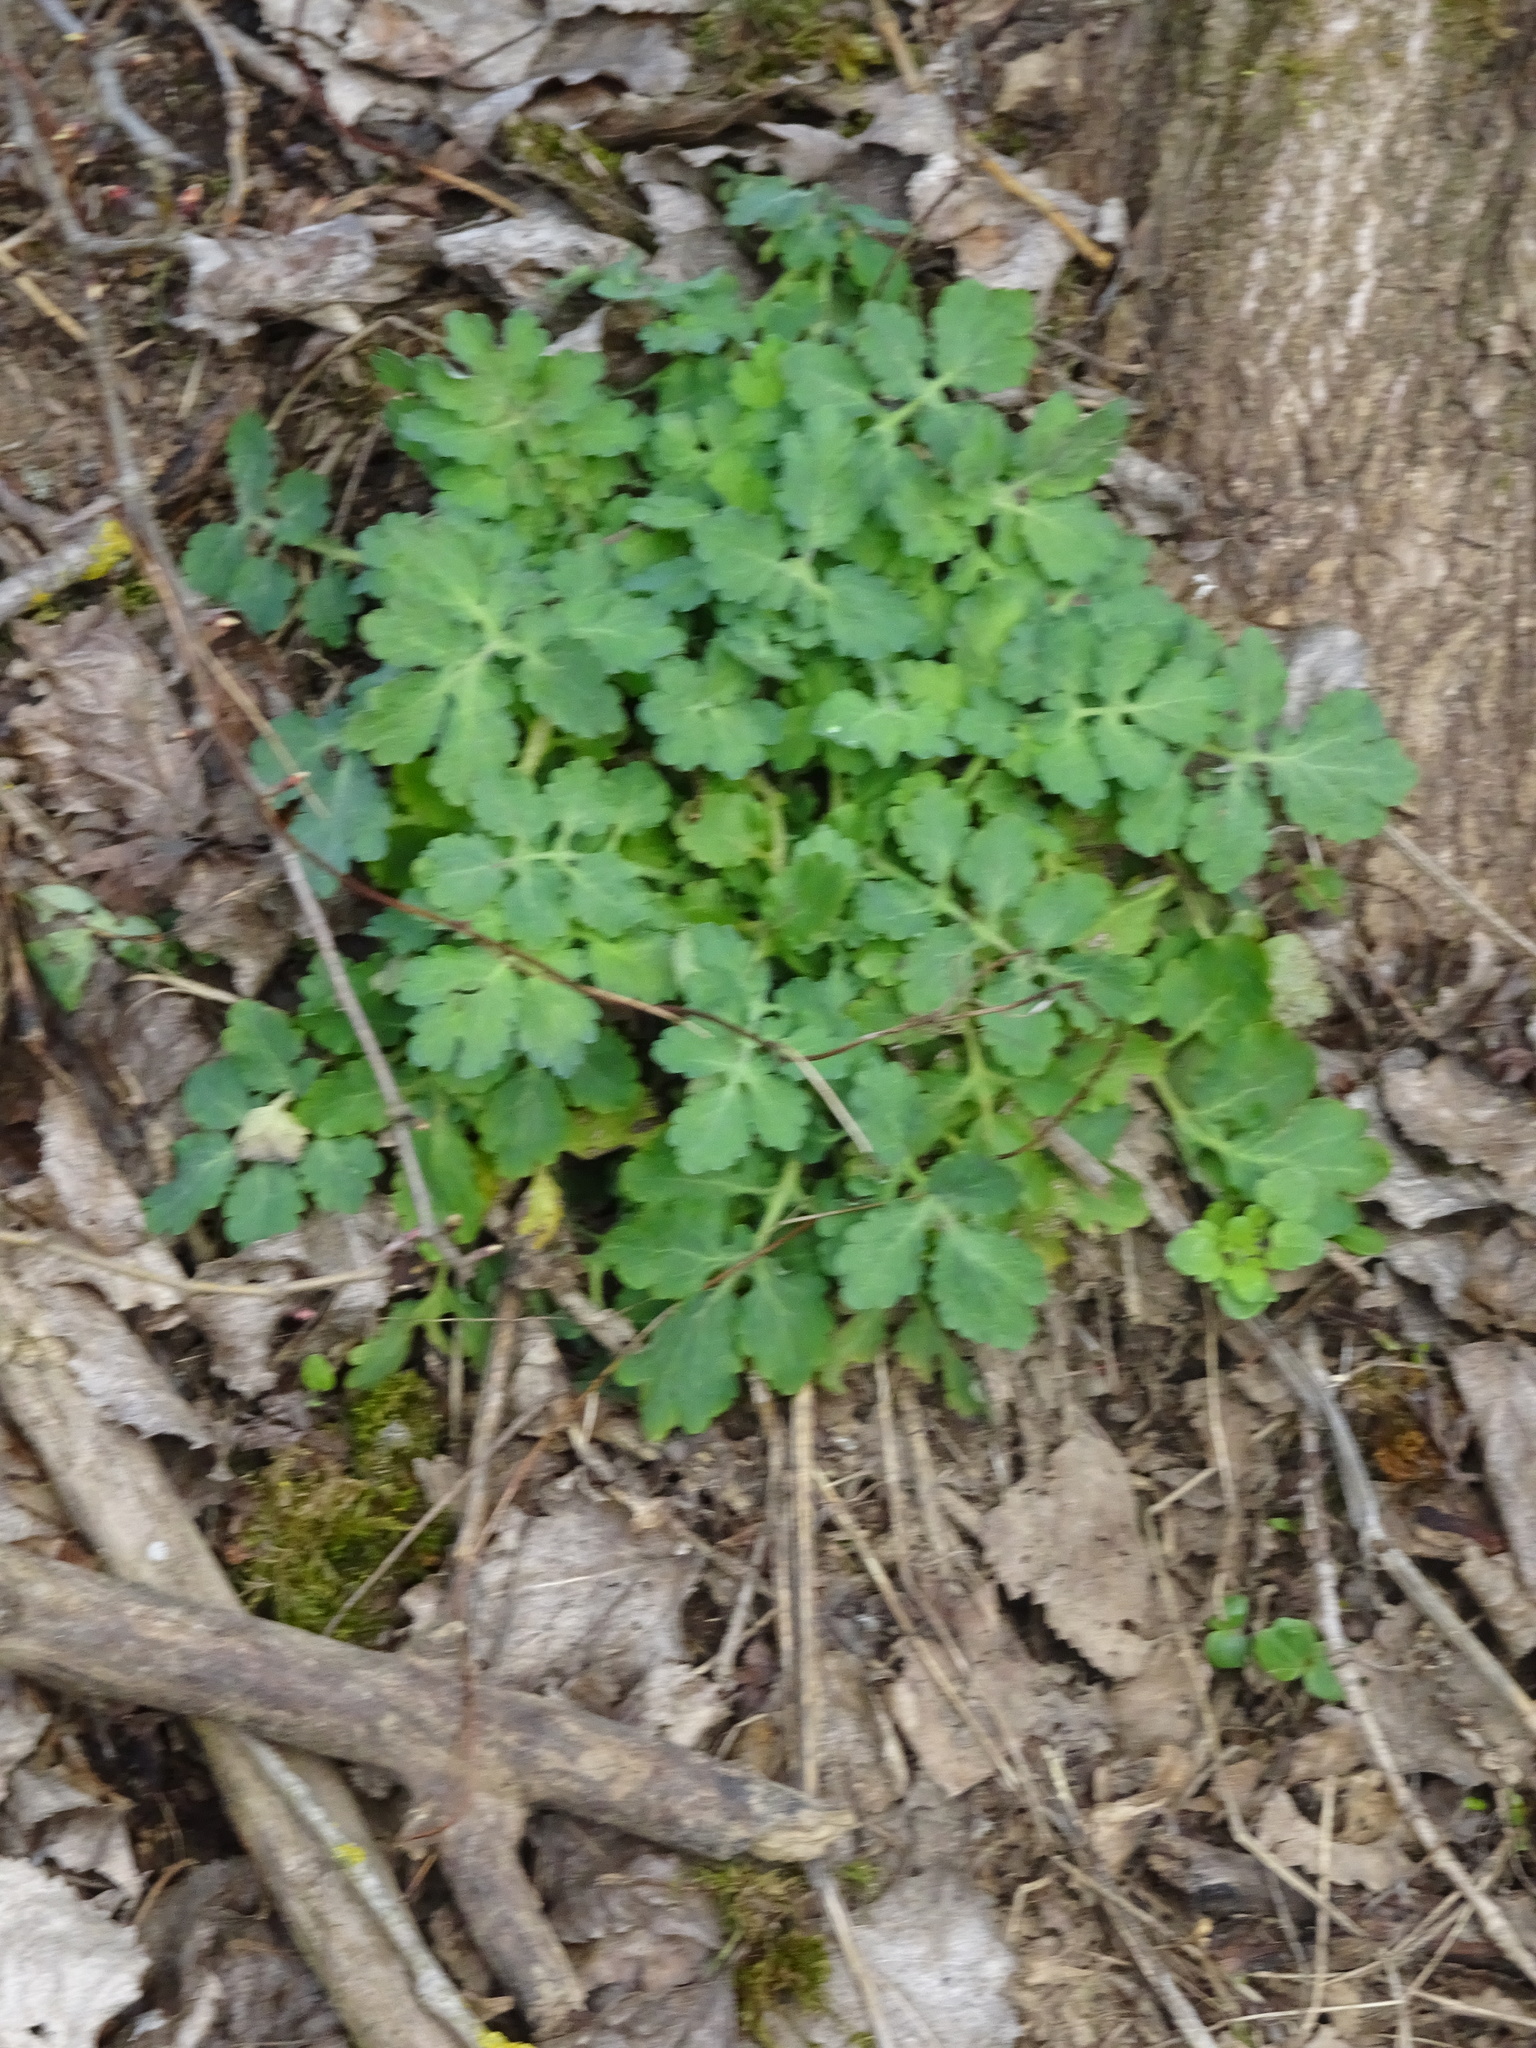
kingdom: Plantae
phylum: Tracheophyta
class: Magnoliopsida
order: Ranunculales
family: Papaveraceae
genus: Chelidonium
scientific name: Chelidonium majus
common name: Greater celandine
